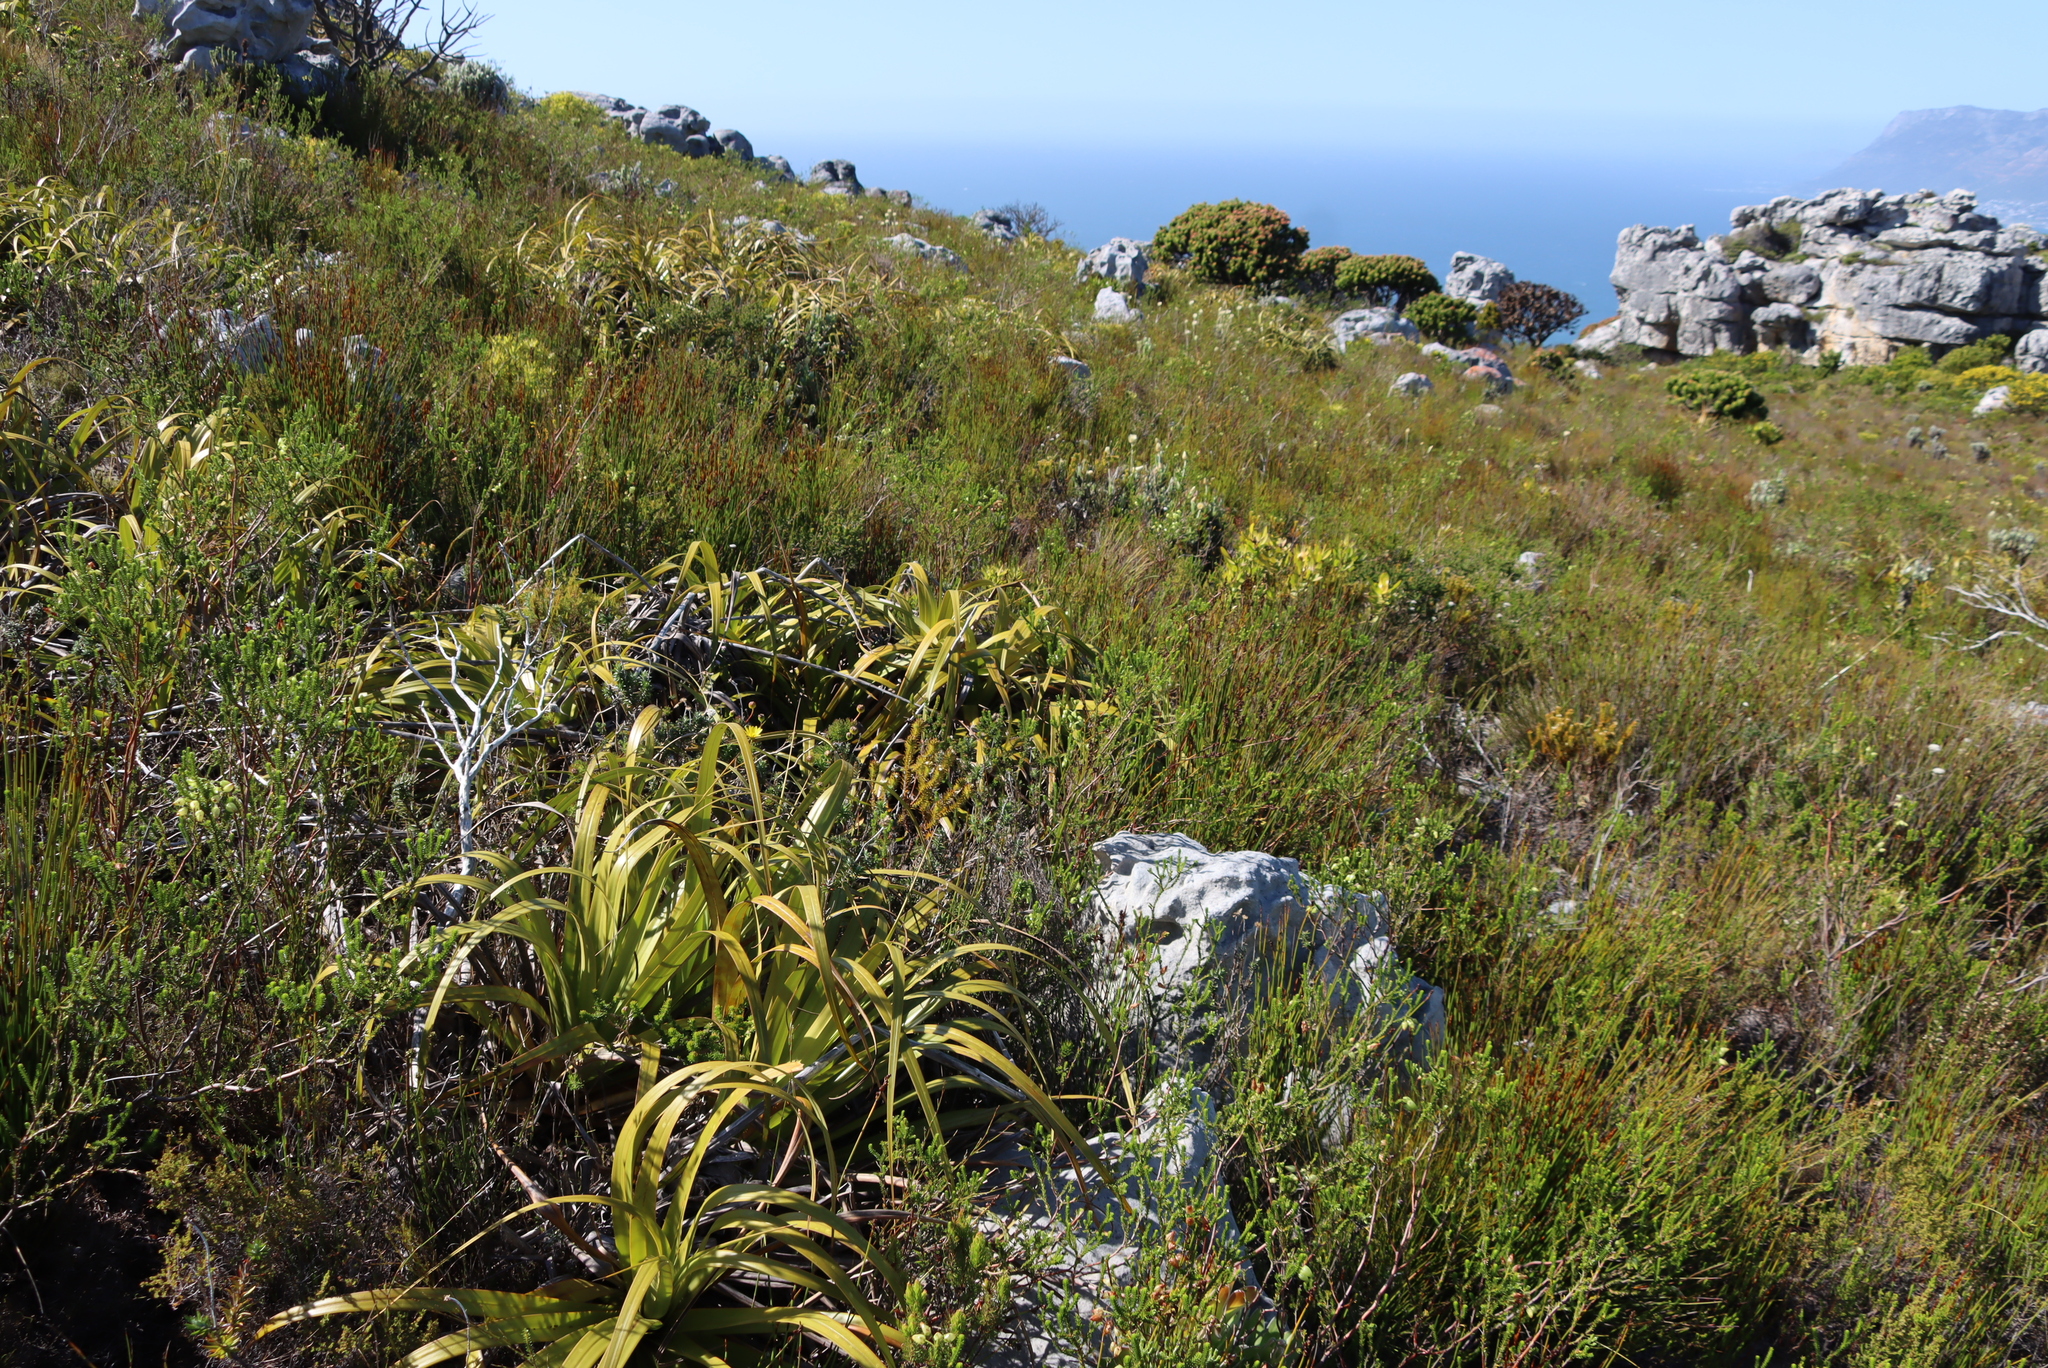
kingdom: Plantae
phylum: Tracheophyta
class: Liliopsida
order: Poales
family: Cyperaceae
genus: Tetraria
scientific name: Tetraria thermalis
